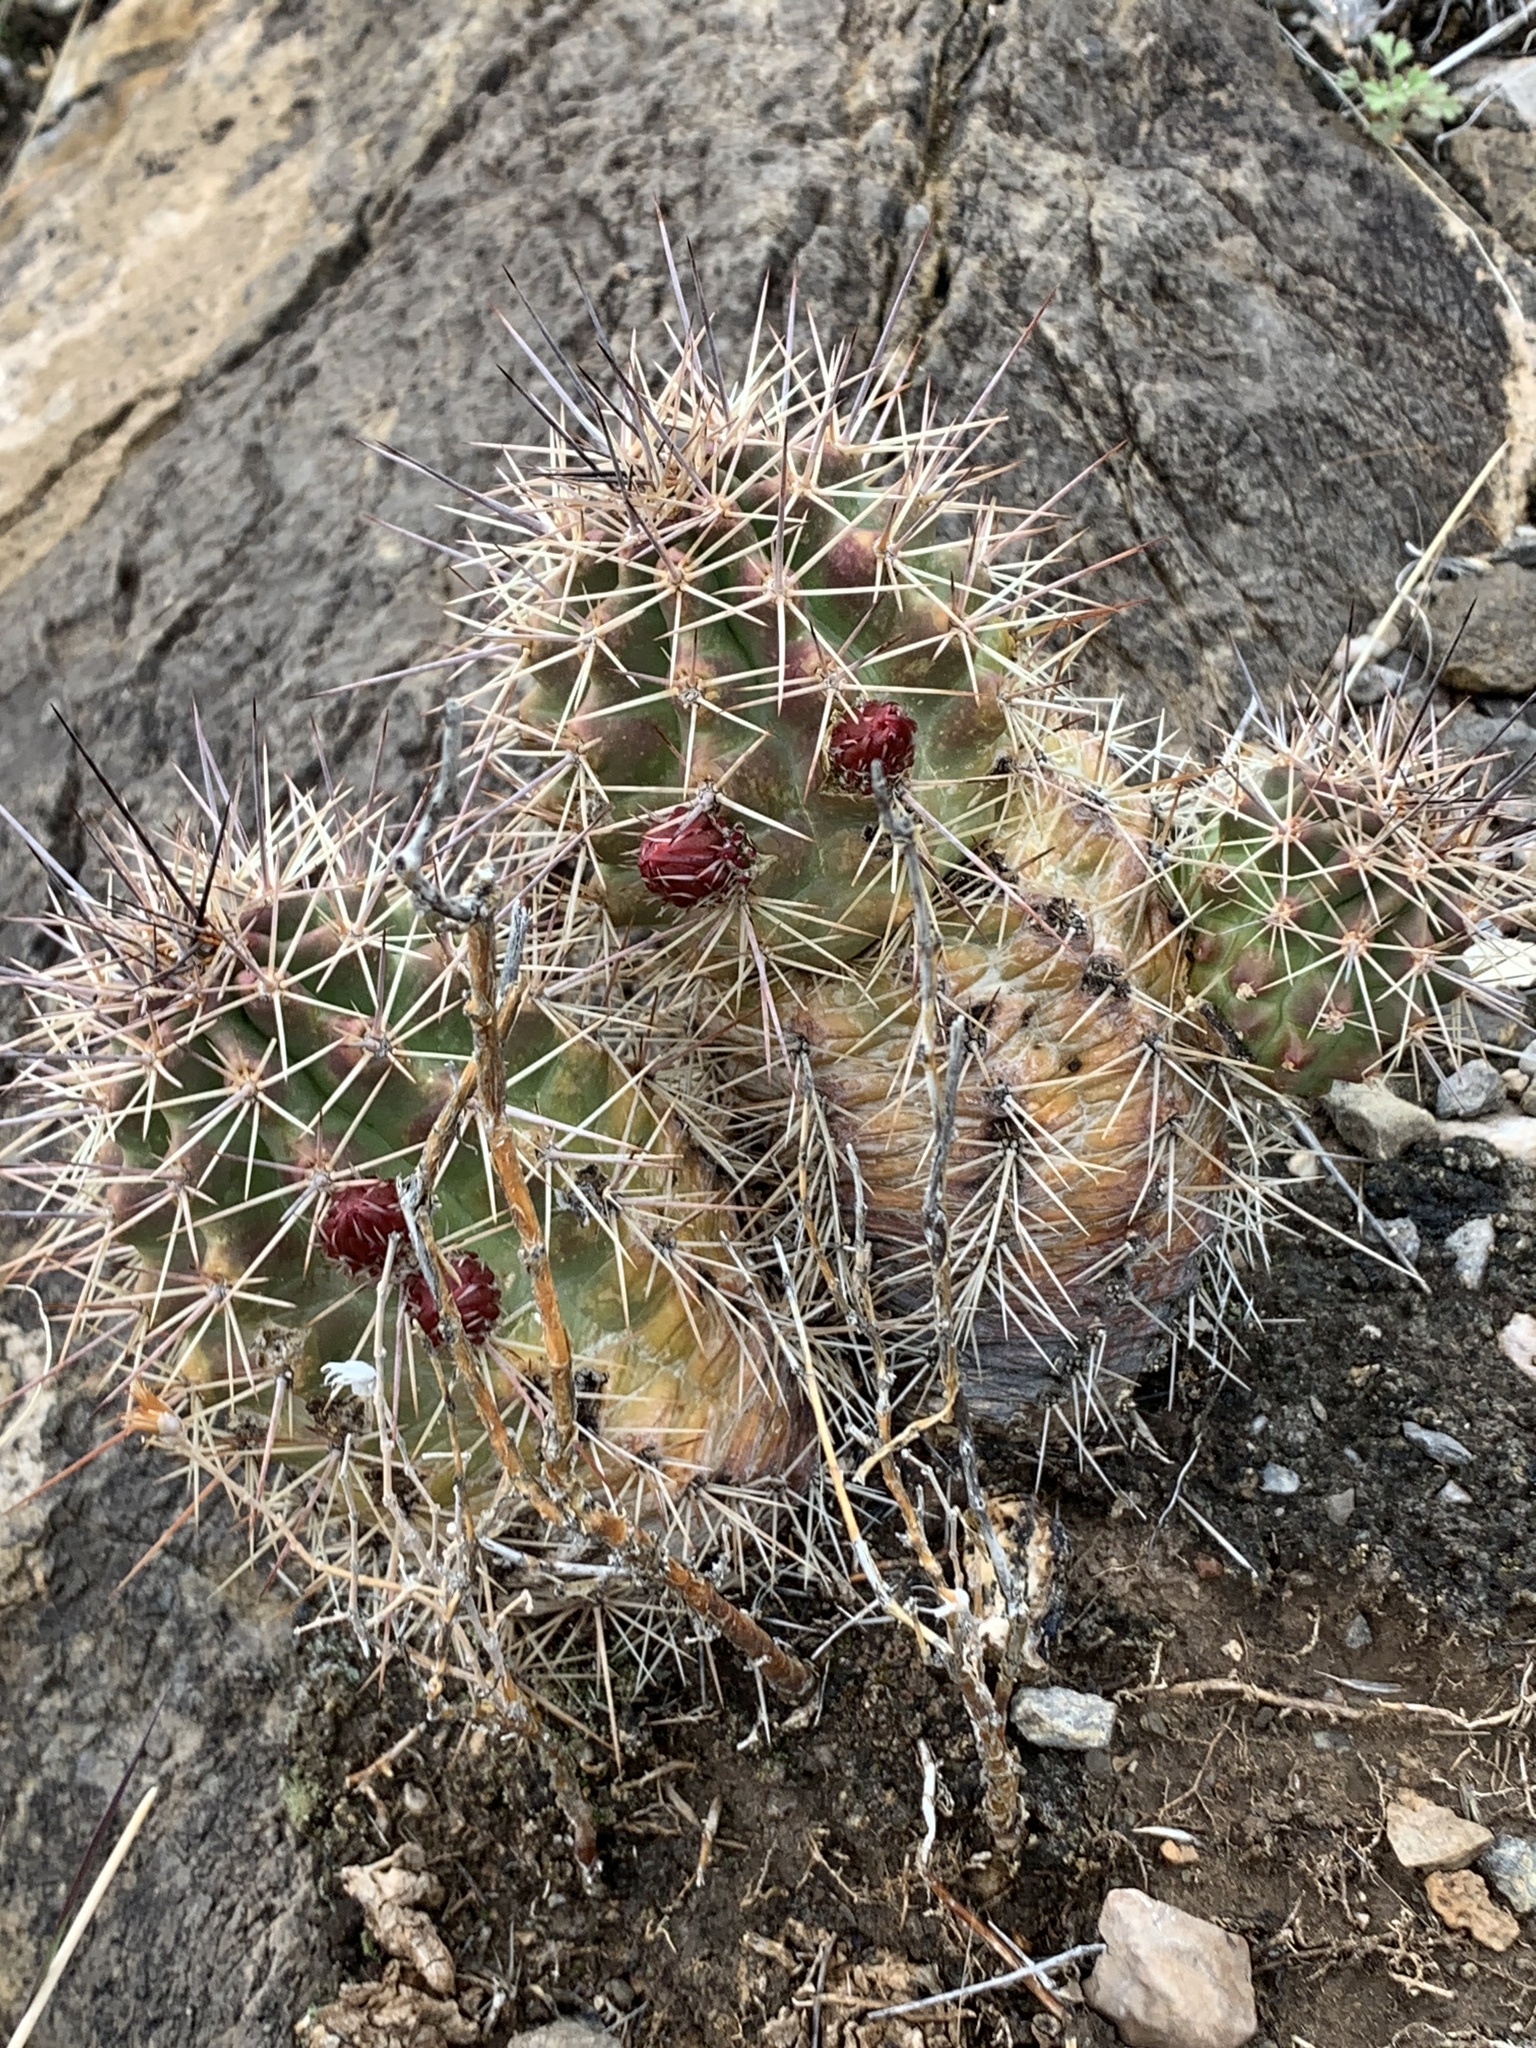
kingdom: Plantae
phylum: Tracheophyta
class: Magnoliopsida
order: Caryophyllales
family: Cactaceae
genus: Echinocereus
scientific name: Echinocereus coccineus
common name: Scarlet hedgehog cactus
